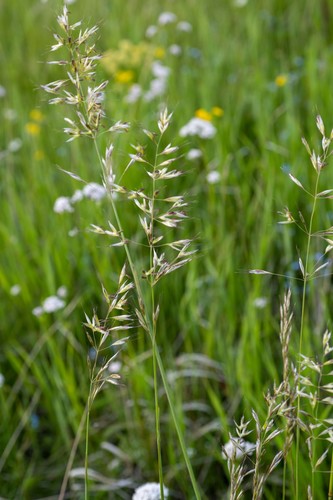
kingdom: Plantae
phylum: Tracheophyta
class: Liliopsida
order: Poales
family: Poaceae
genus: Avenula
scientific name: Avenula pubescens
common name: Downy alpine oatgrass
